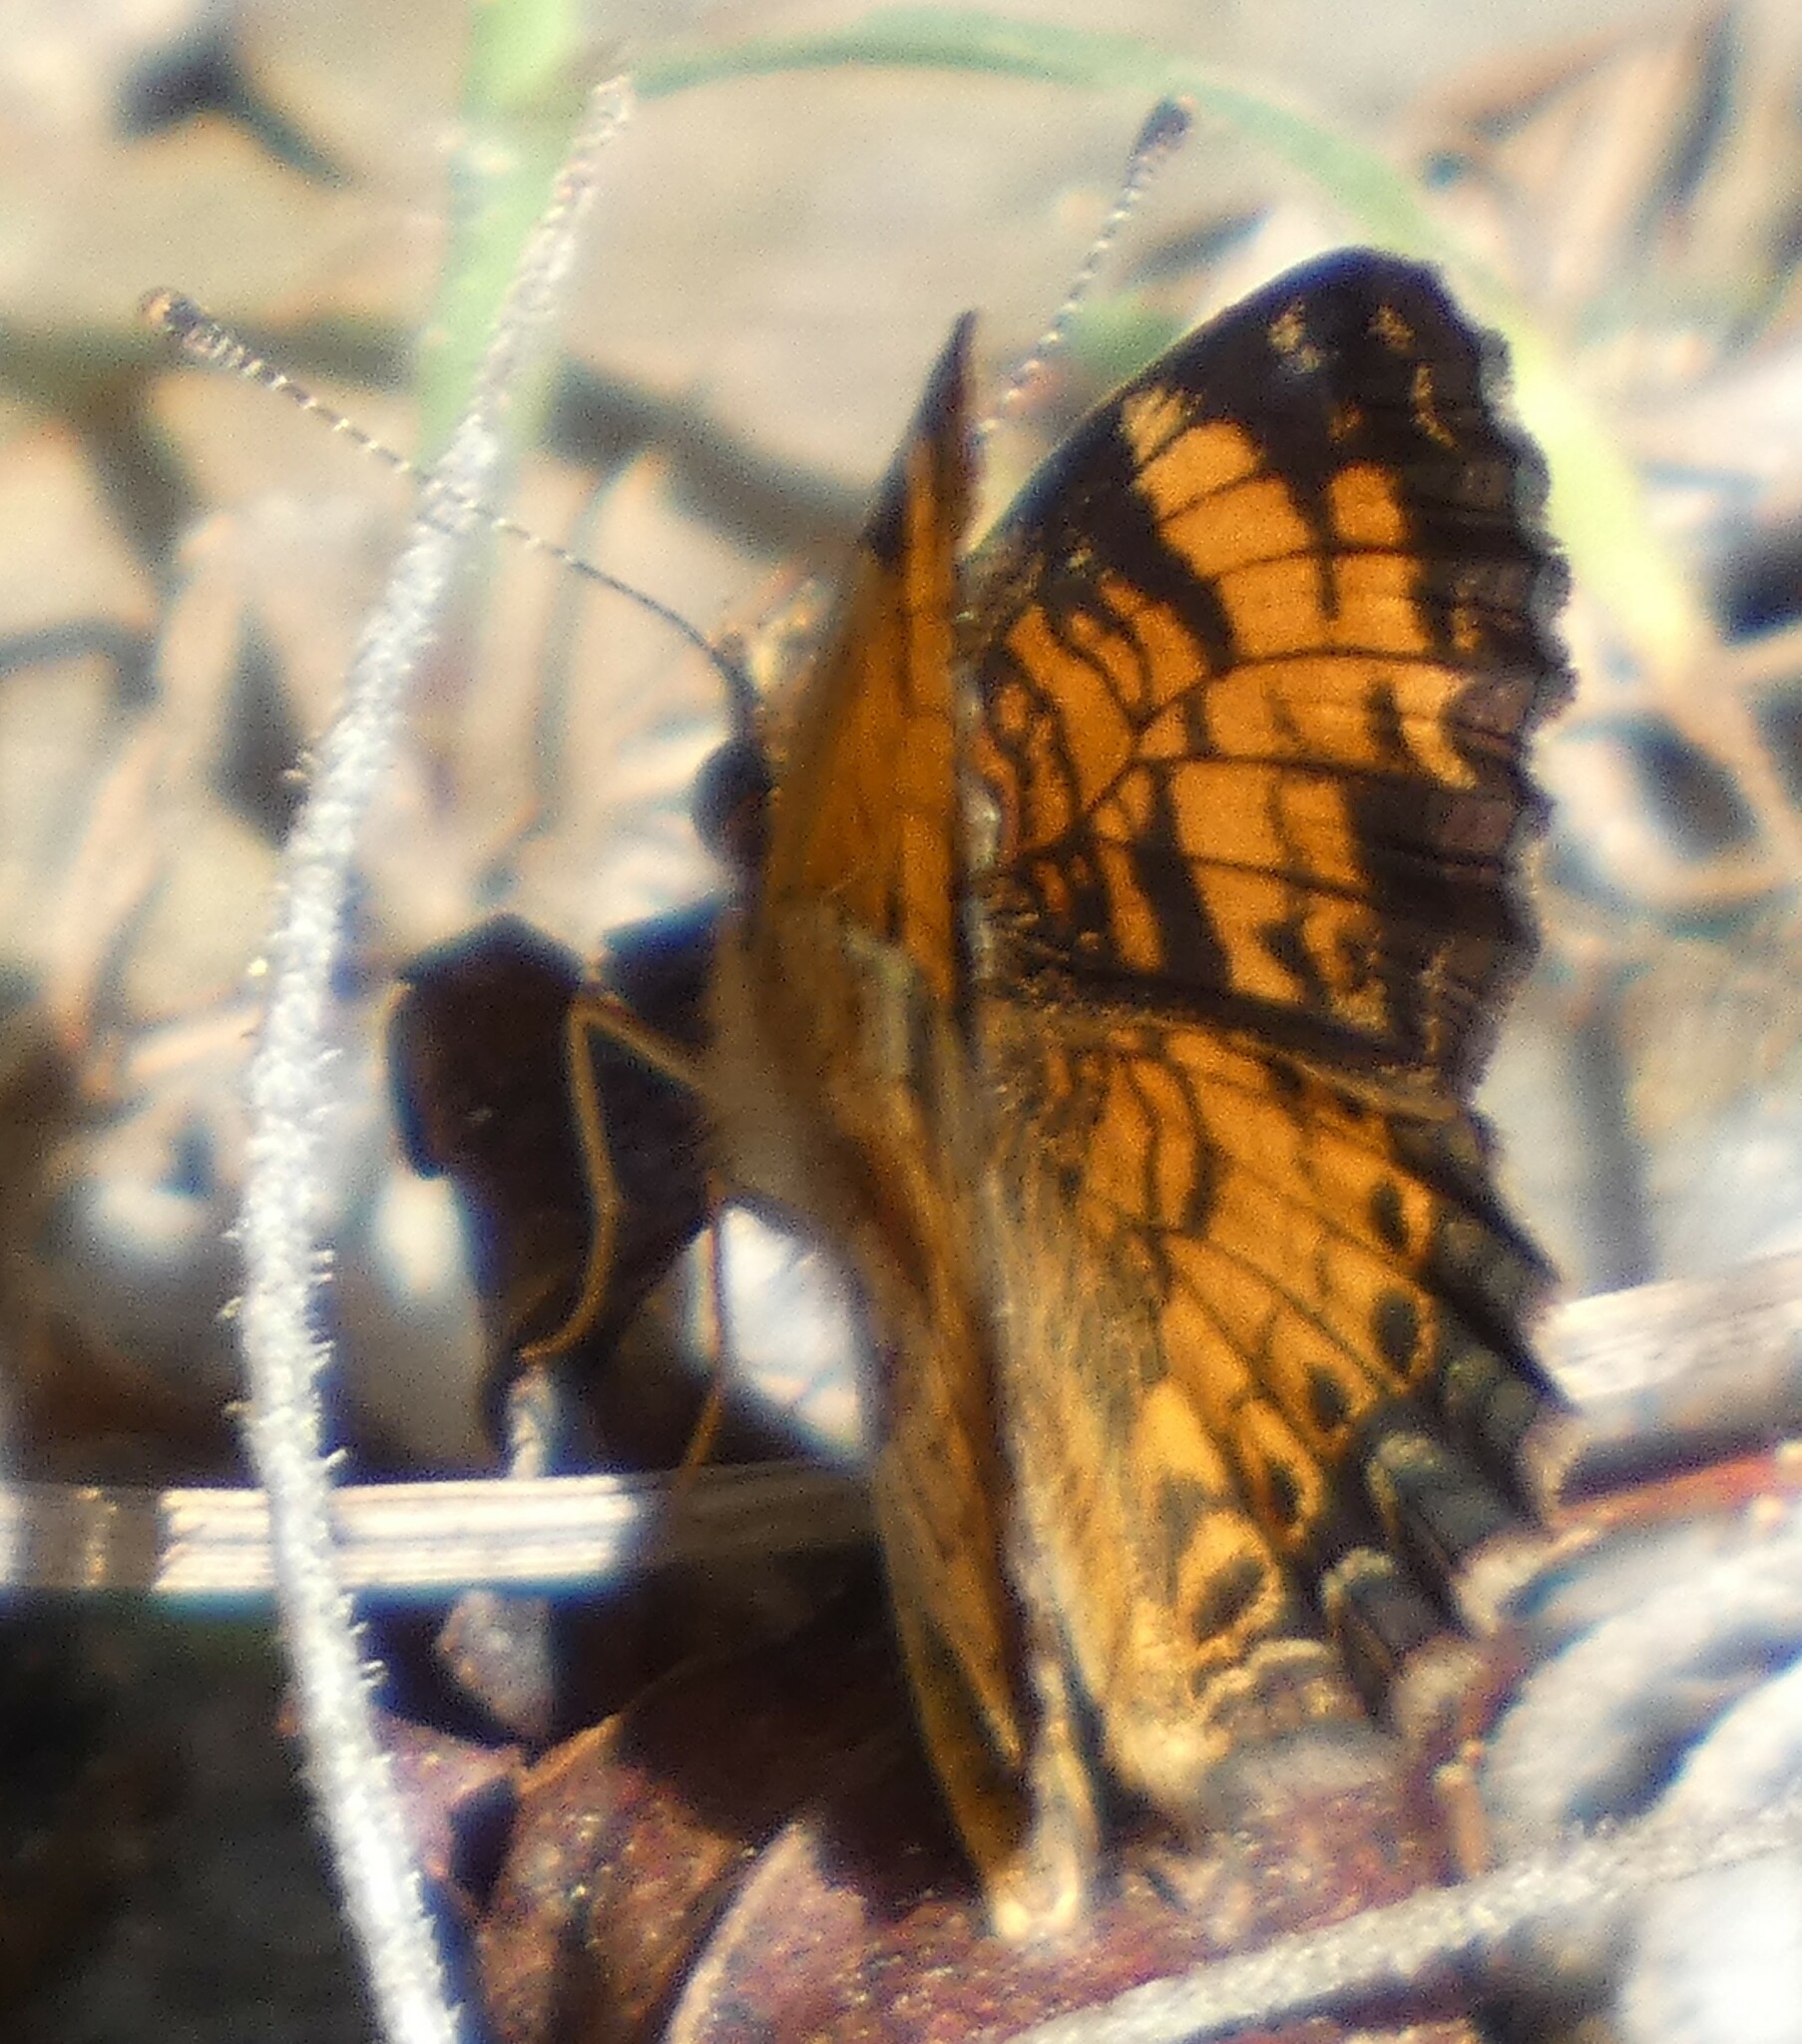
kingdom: Animalia
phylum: Arthropoda
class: Insecta
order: Lepidoptera
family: Nymphalidae
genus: Phyciodes
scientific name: Phyciodes tharos
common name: Pearl crescent
